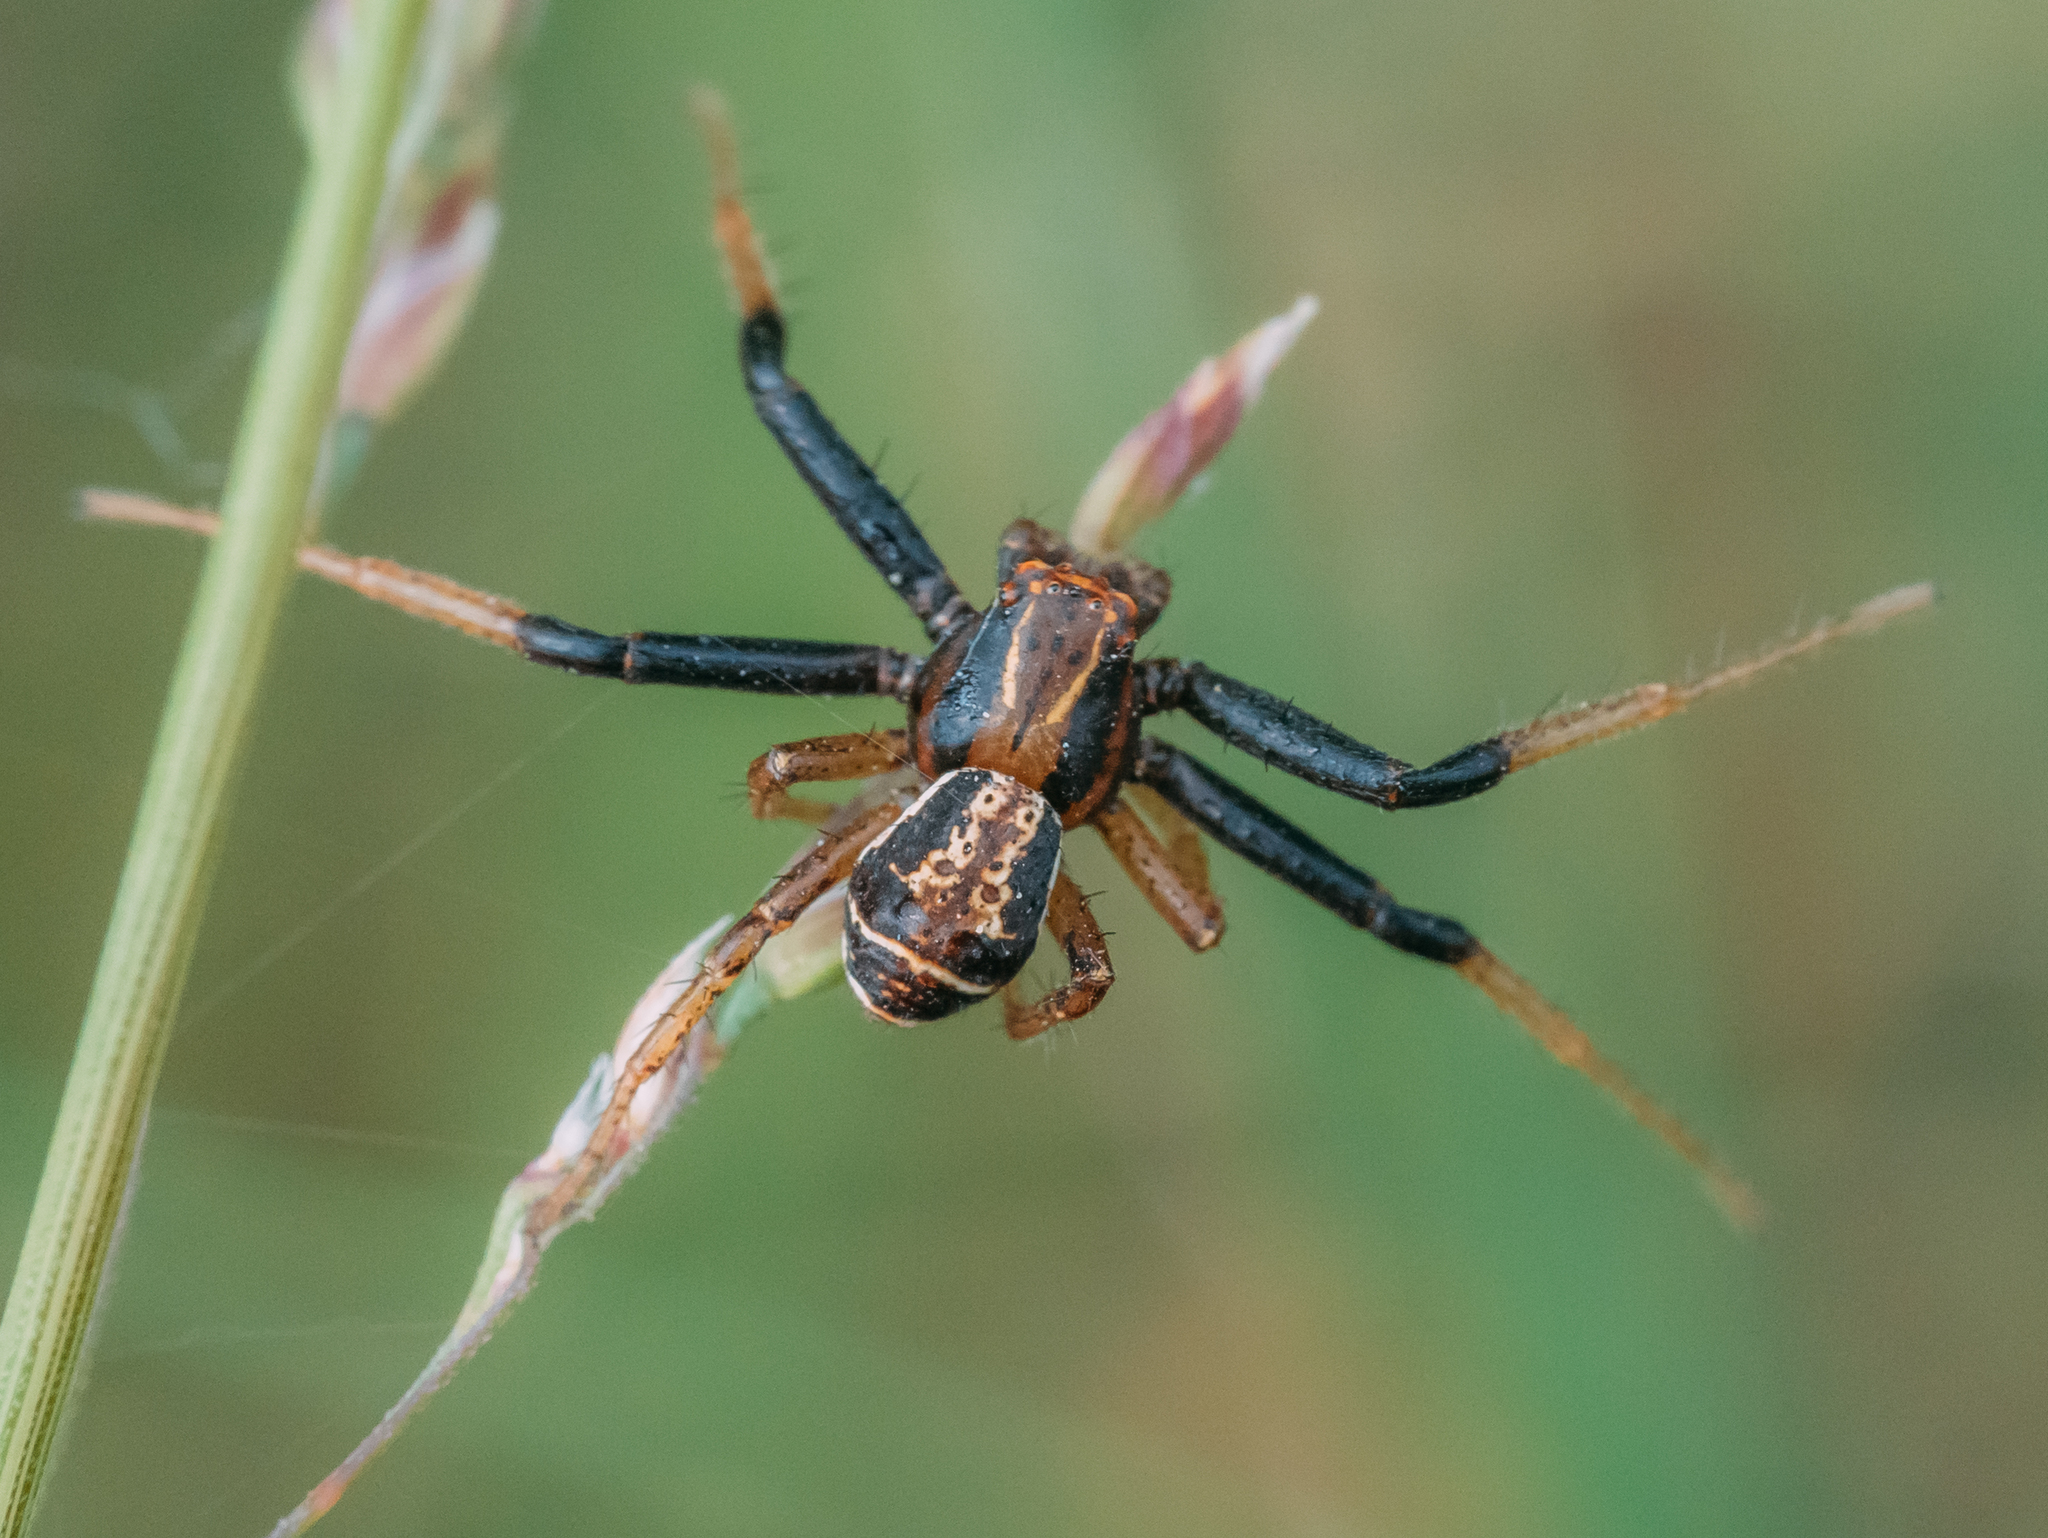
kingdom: Animalia
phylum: Arthropoda
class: Arachnida
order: Araneae
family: Thomisidae
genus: Xysticus
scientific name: Xysticus ulmi
